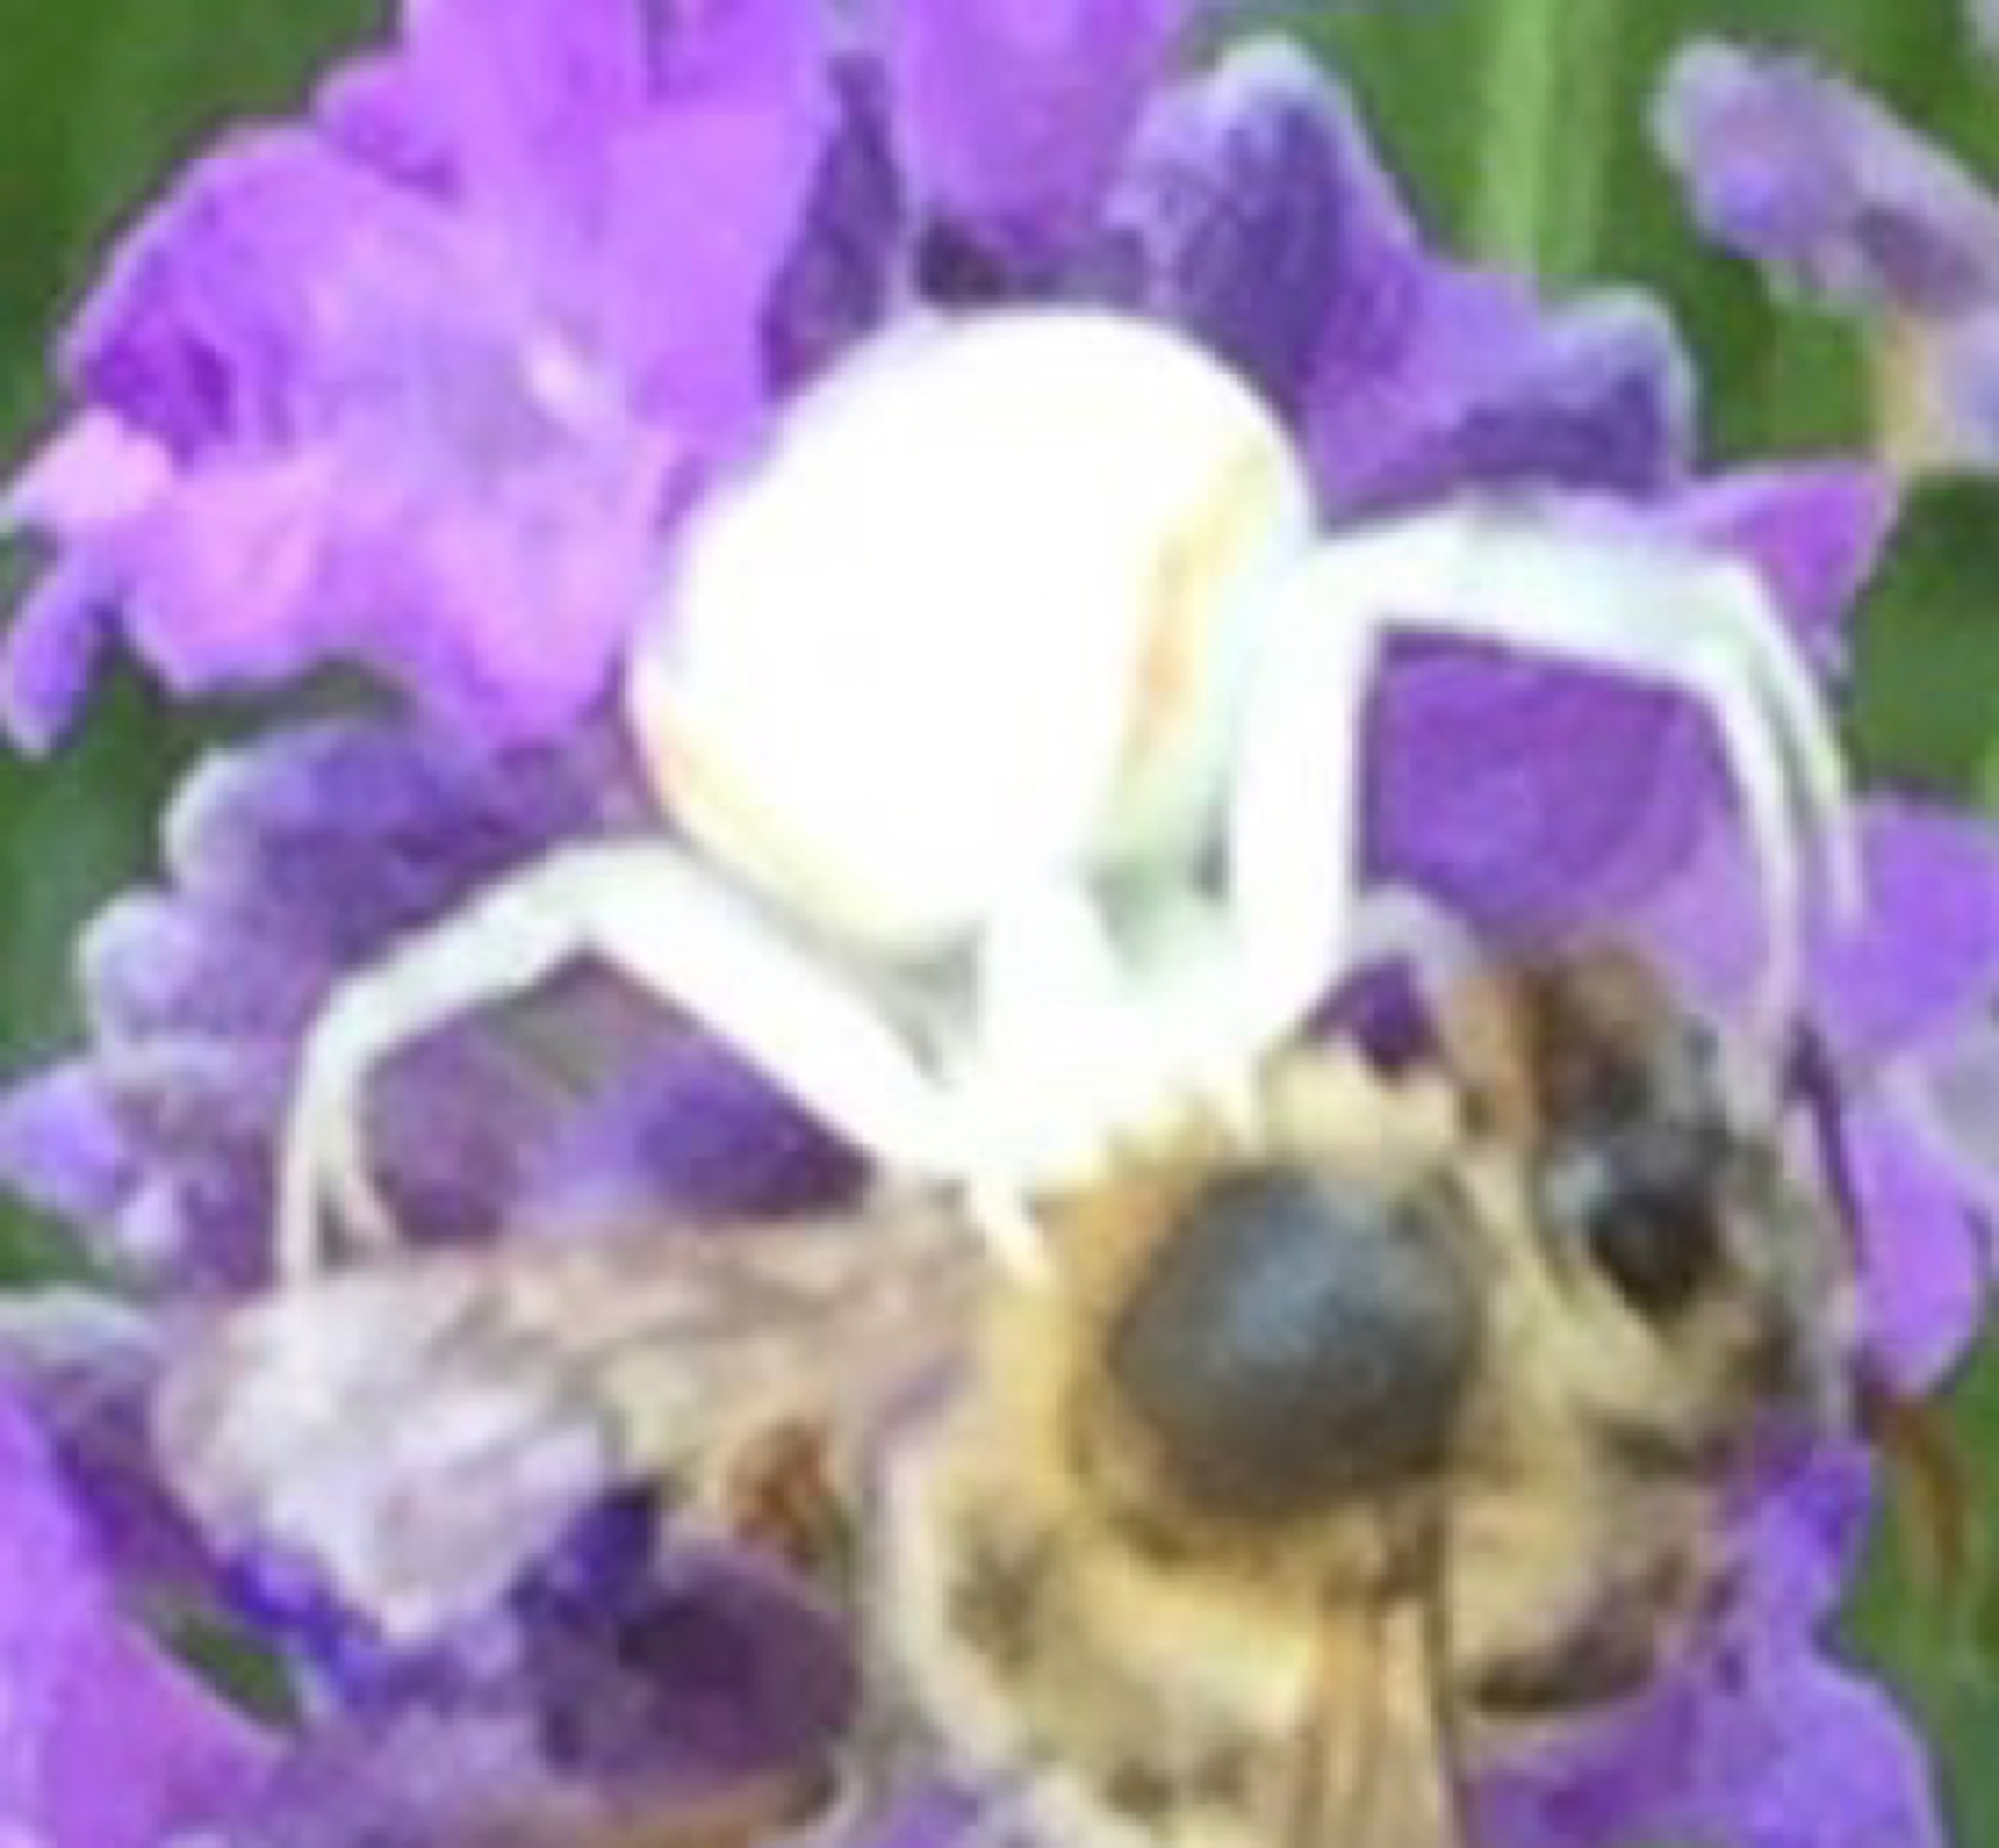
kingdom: Animalia
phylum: Arthropoda
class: Arachnida
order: Araneae
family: Thomisidae
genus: Misumena
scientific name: Misumena vatia
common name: Goldenrod crab spider
